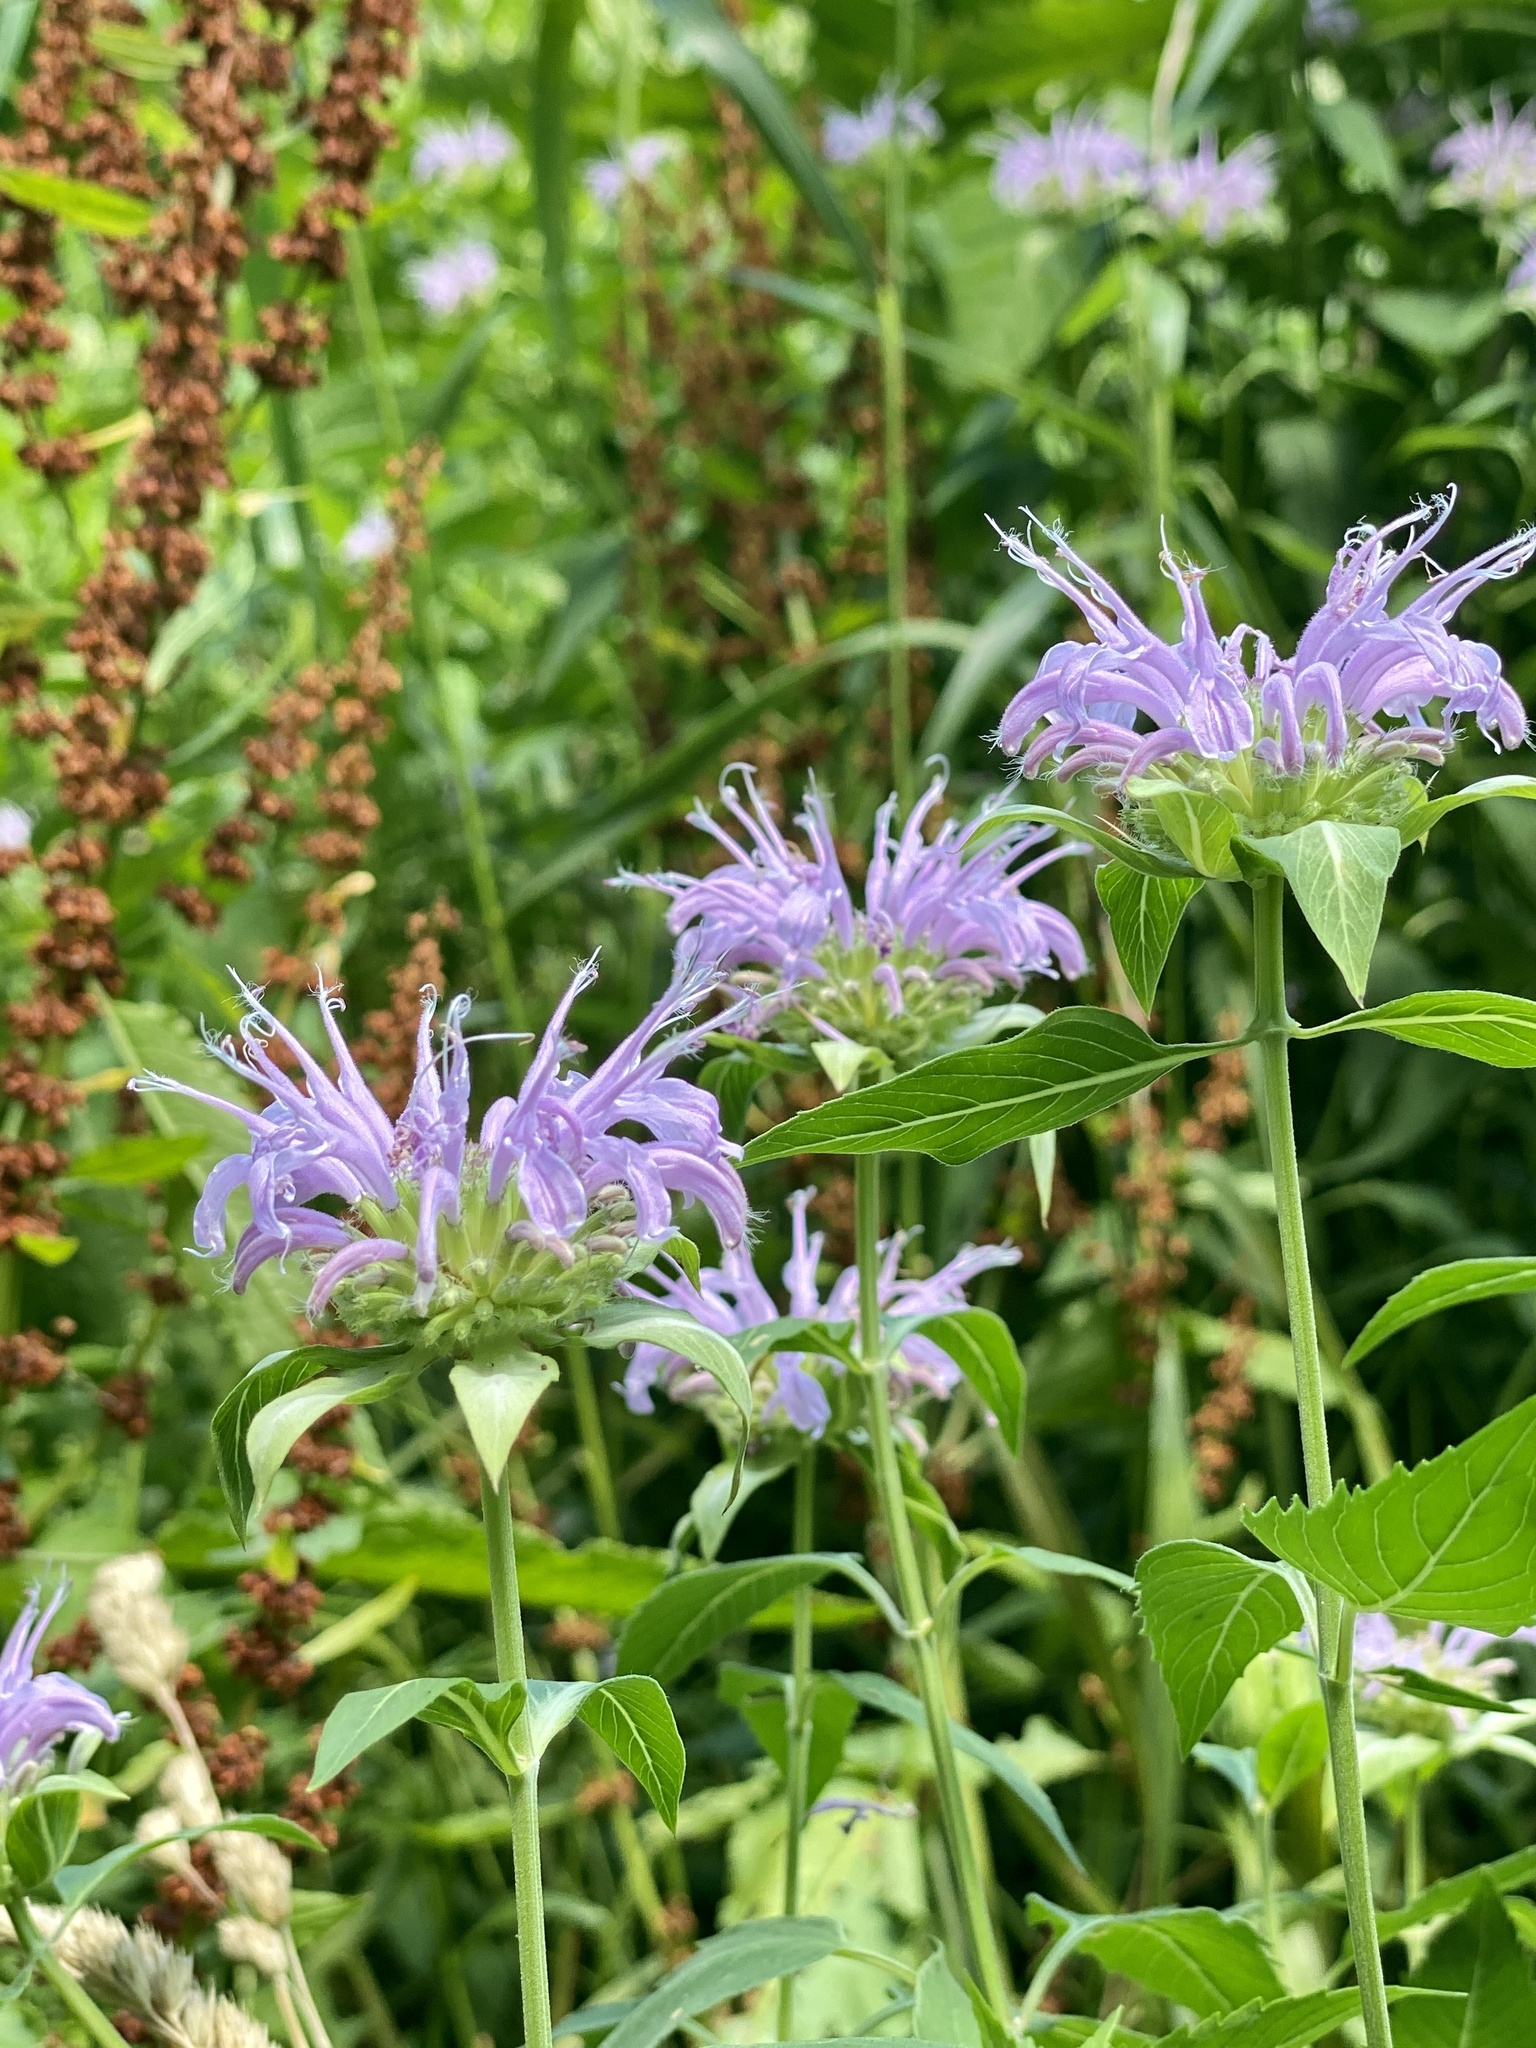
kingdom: Plantae
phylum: Tracheophyta
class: Magnoliopsida
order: Lamiales
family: Lamiaceae
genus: Monarda
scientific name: Monarda fistulosa
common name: Purple beebalm
